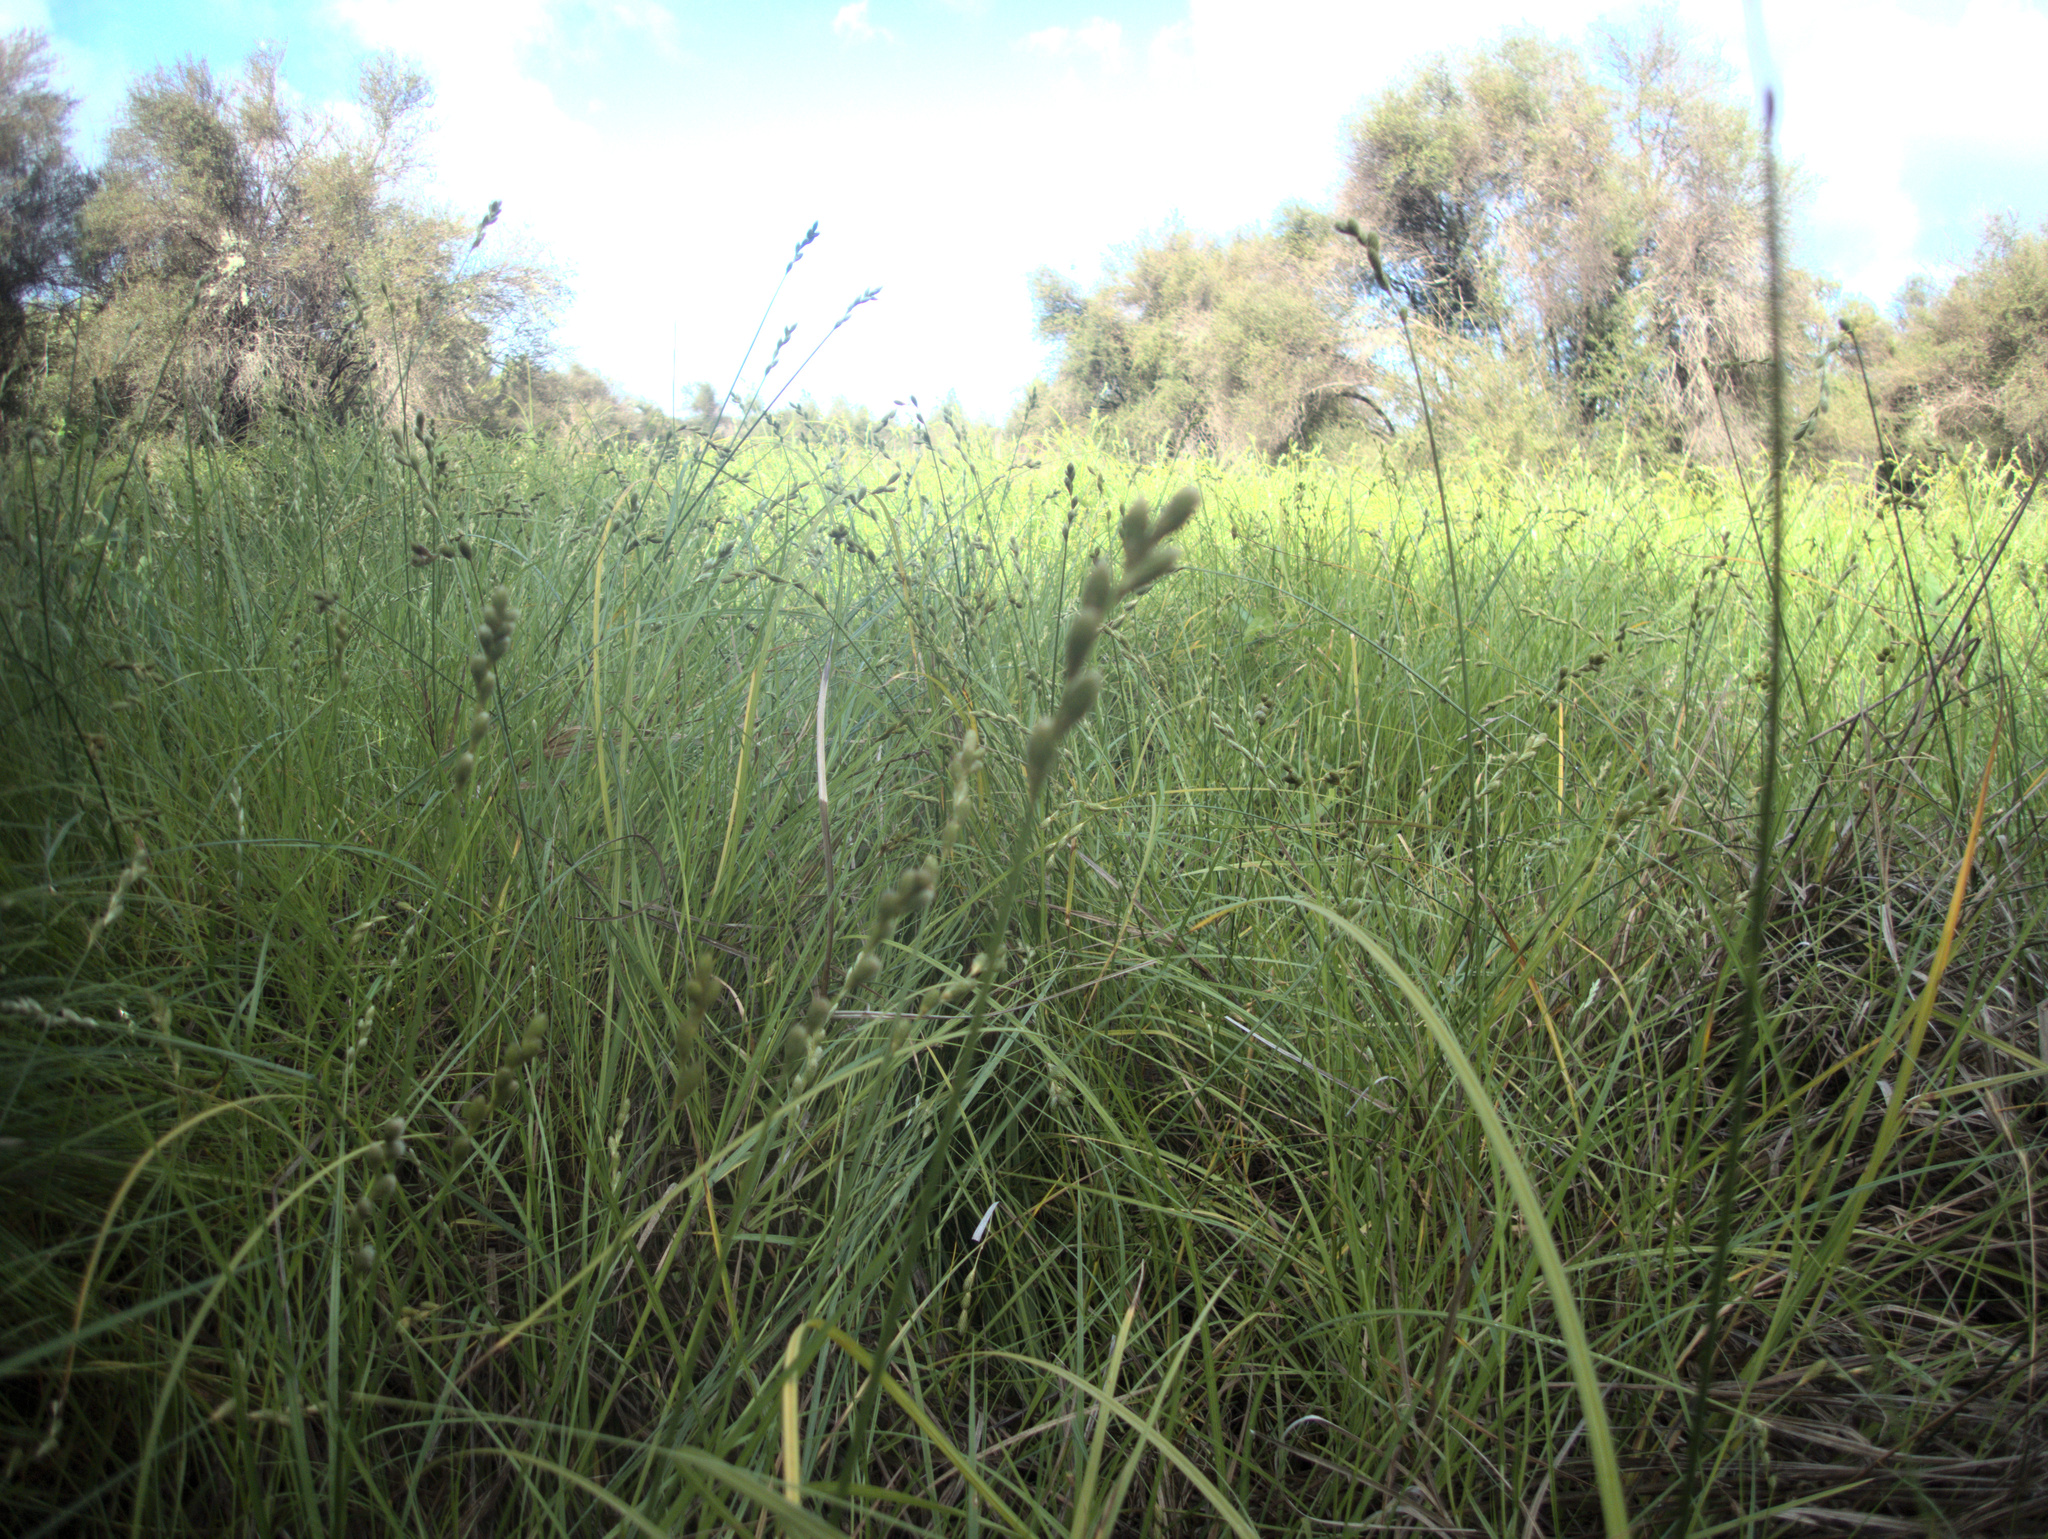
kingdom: Plantae
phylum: Tracheophyta
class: Liliopsida
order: Poales
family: Cyperaceae
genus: Carex
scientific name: Carex longii
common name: Long's sedge
